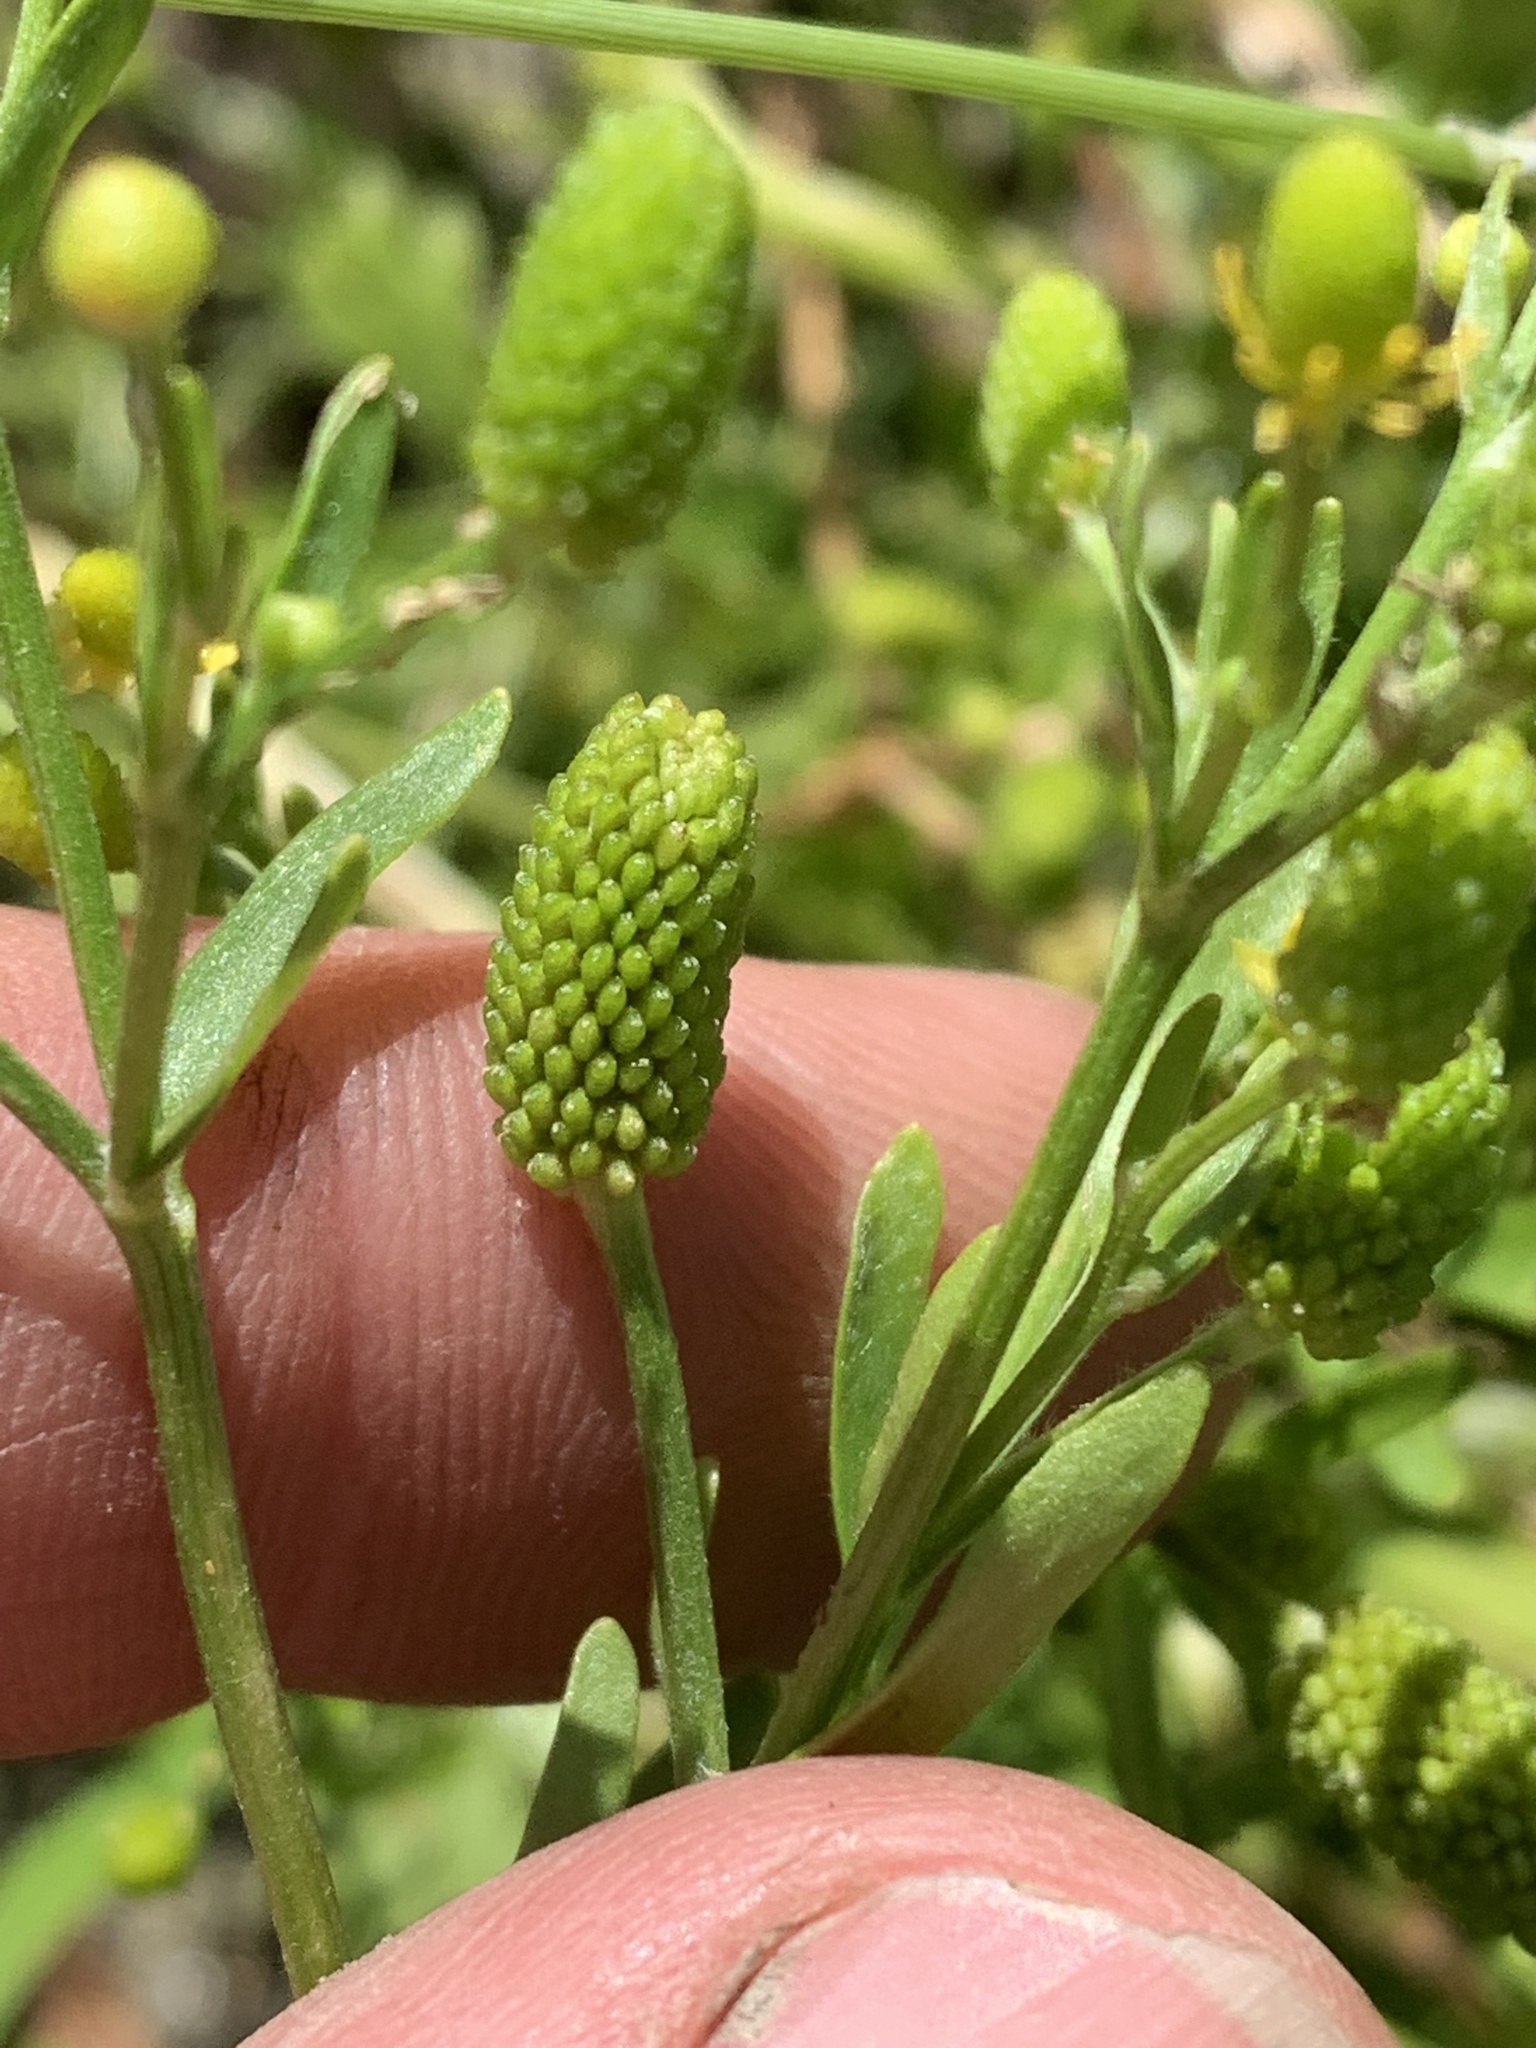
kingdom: Plantae
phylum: Tracheophyta
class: Magnoliopsida
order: Ranunculales
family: Ranunculaceae
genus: Ranunculus
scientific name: Ranunculus sceleratus
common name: Celery-leaved buttercup
